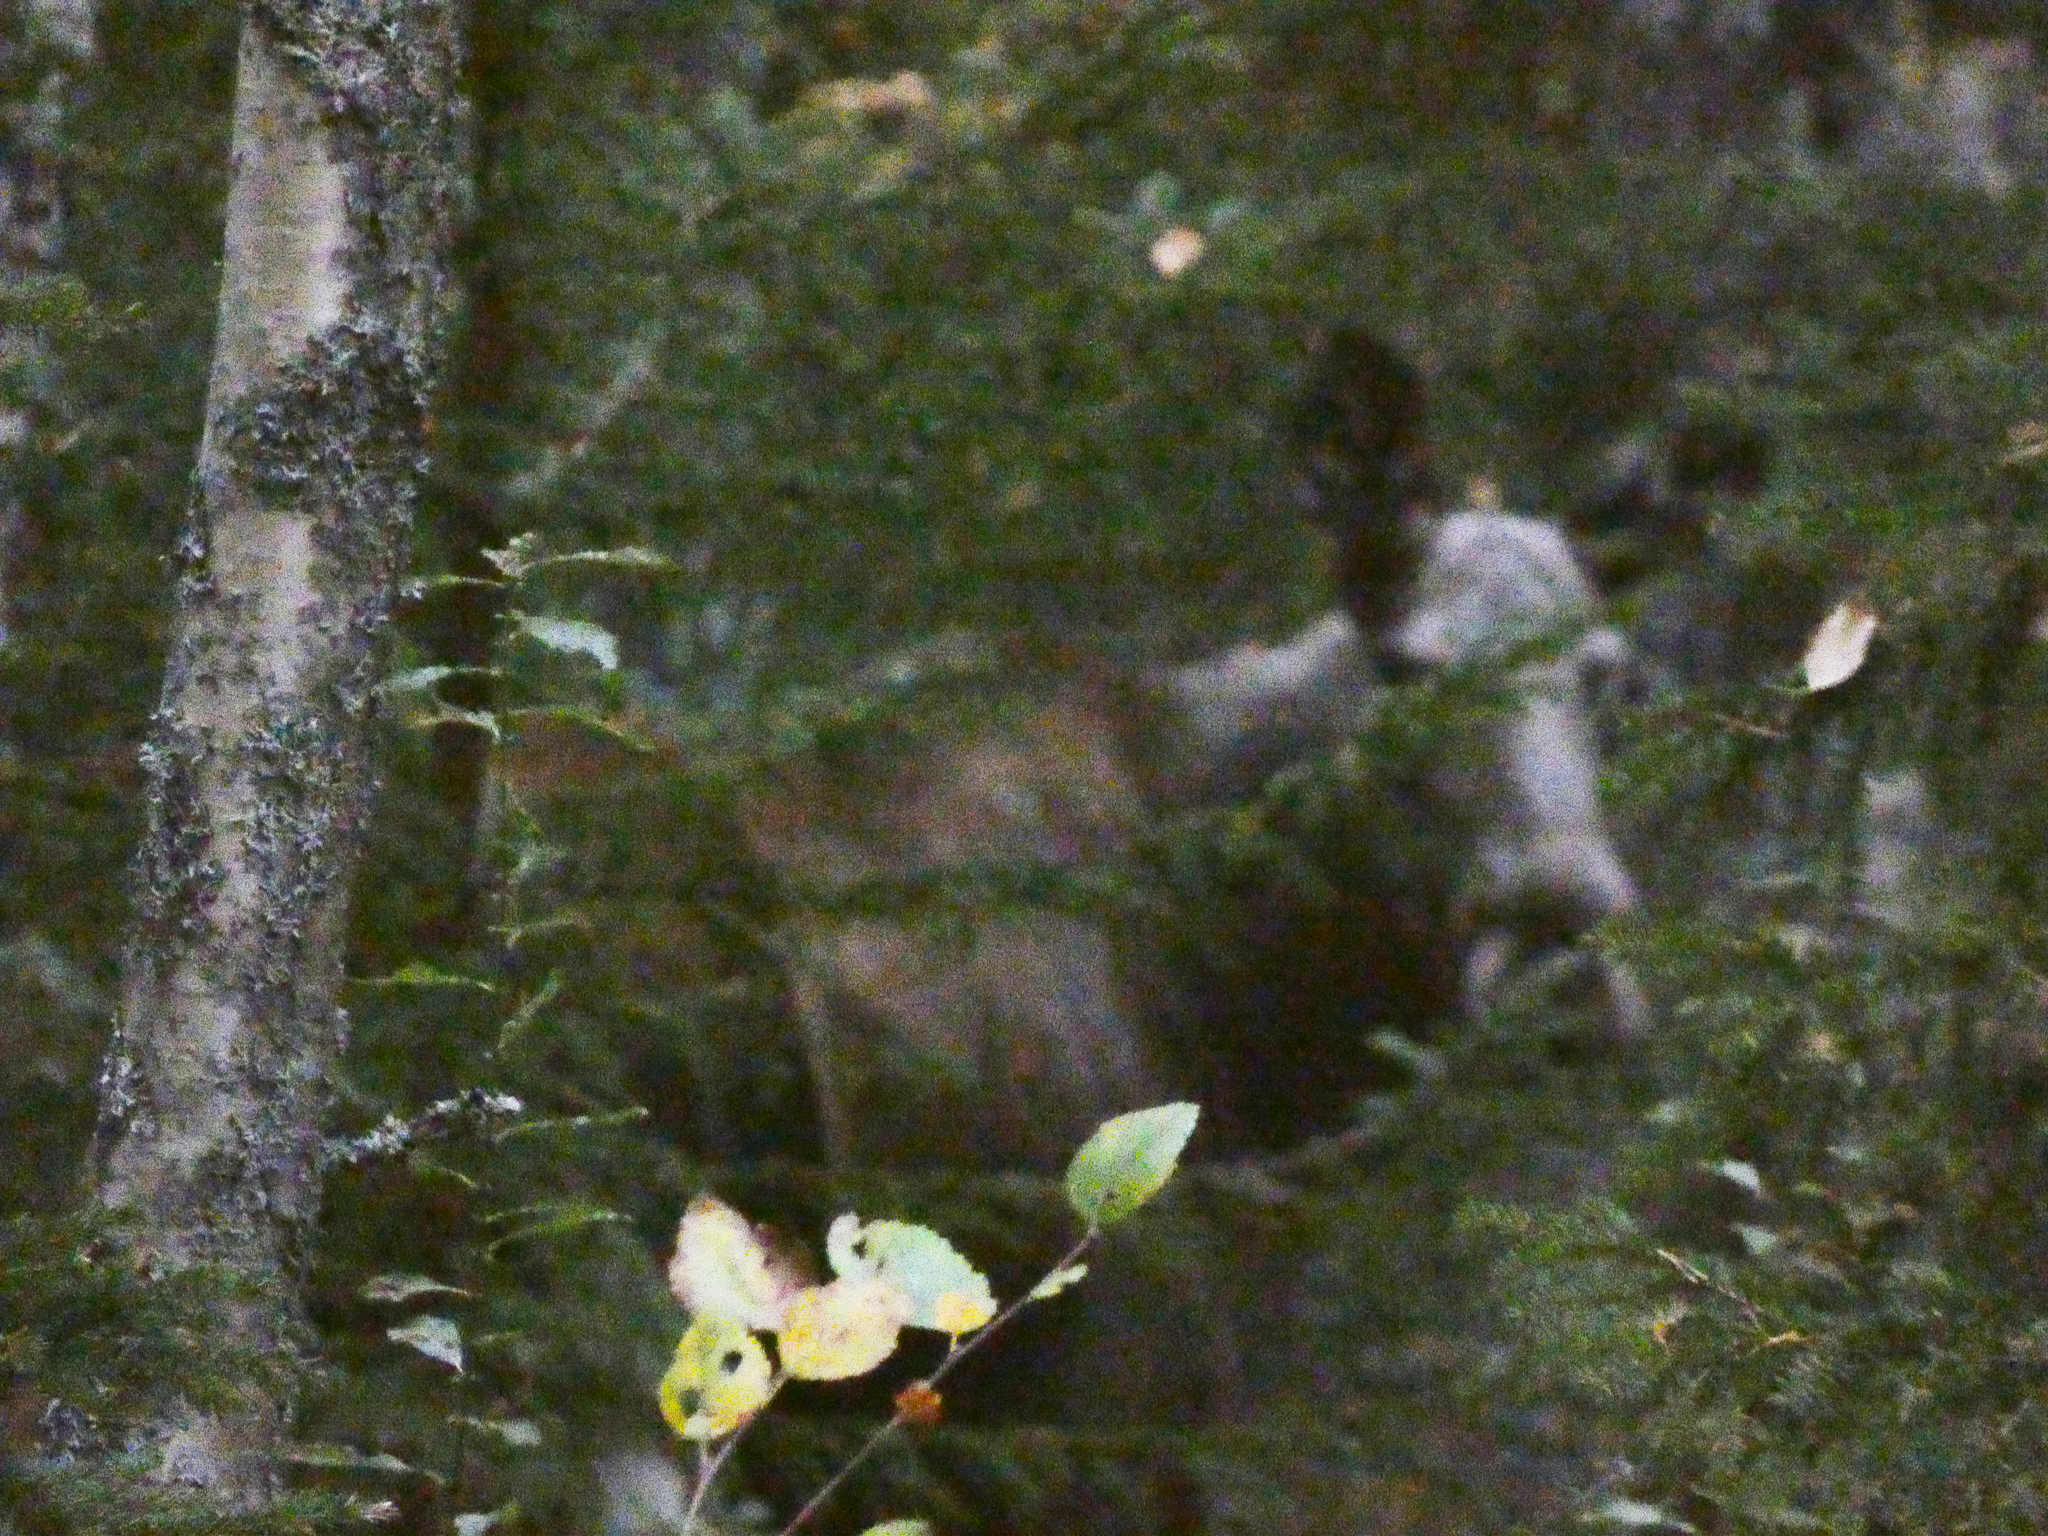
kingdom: Animalia
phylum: Chordata
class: Mammalia
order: Artiodactyla
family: Cervidae
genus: Alces
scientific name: Alces alces
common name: Moose
